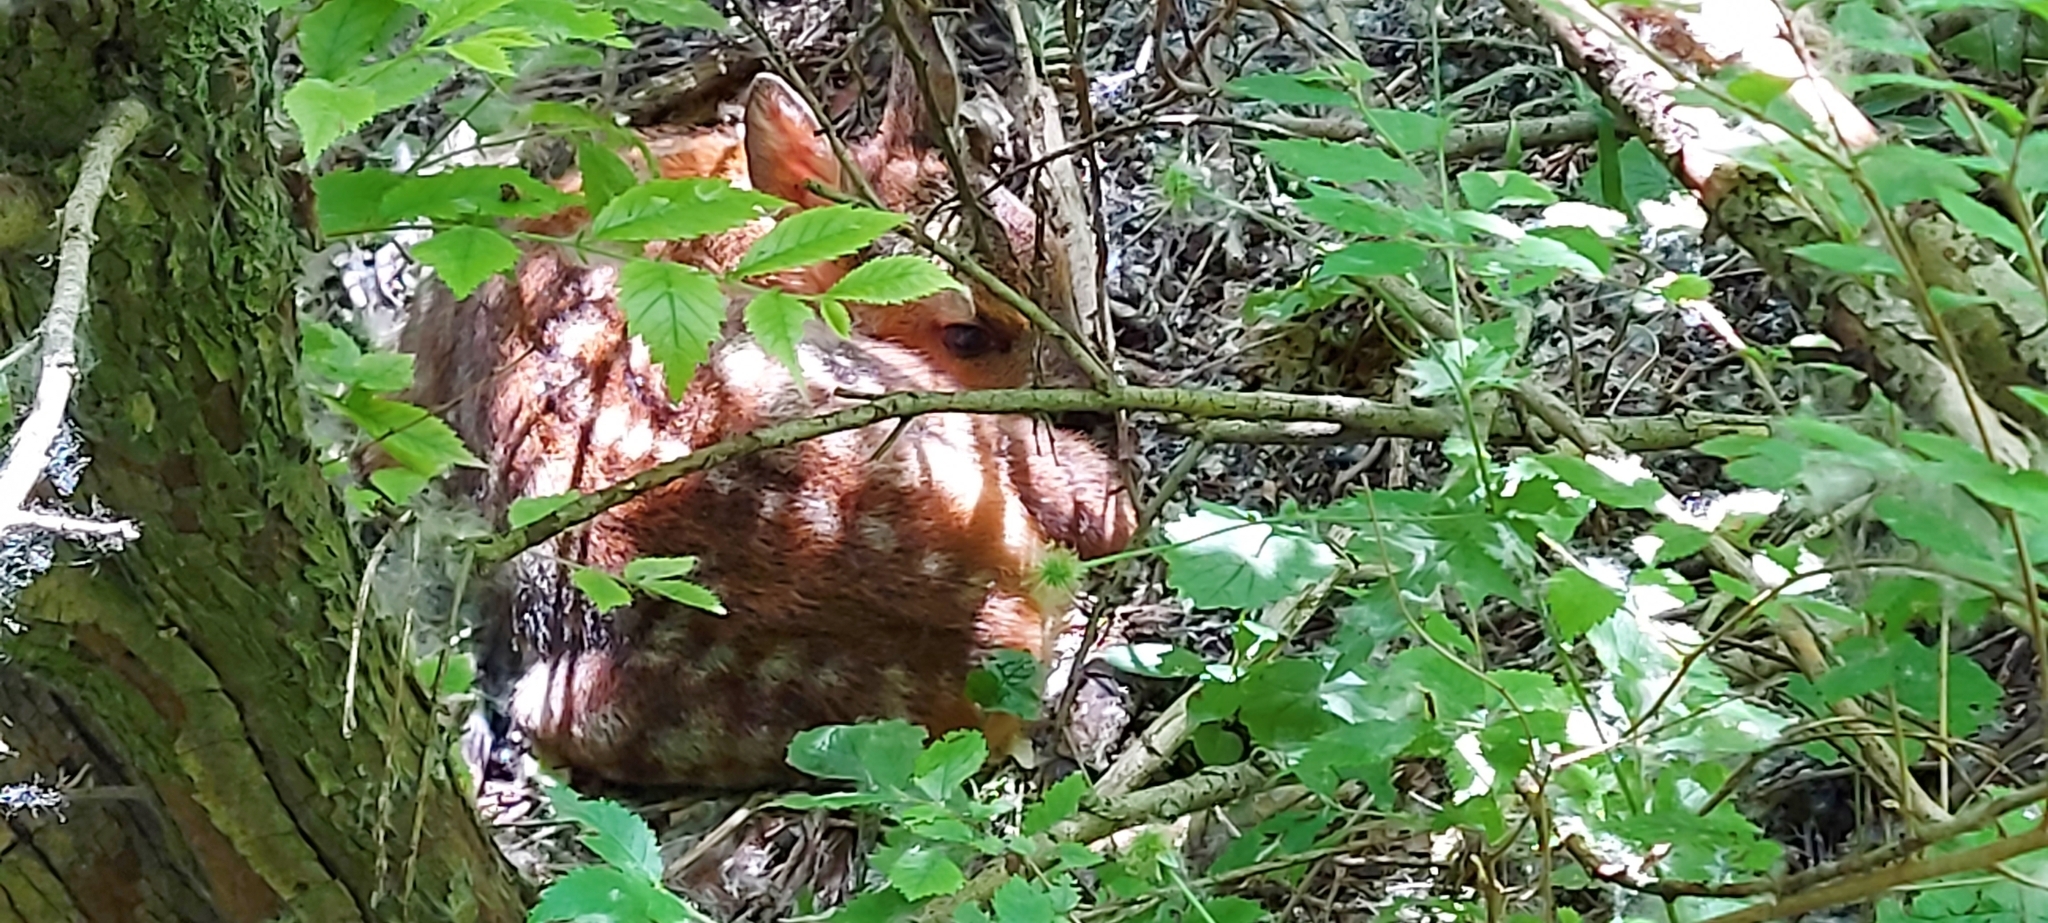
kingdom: Animalia
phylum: Chordata
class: Mammalia
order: Artiodactyla
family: Cervidae
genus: Capreolus
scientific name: Capreolus capreolus
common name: Western roe deer
